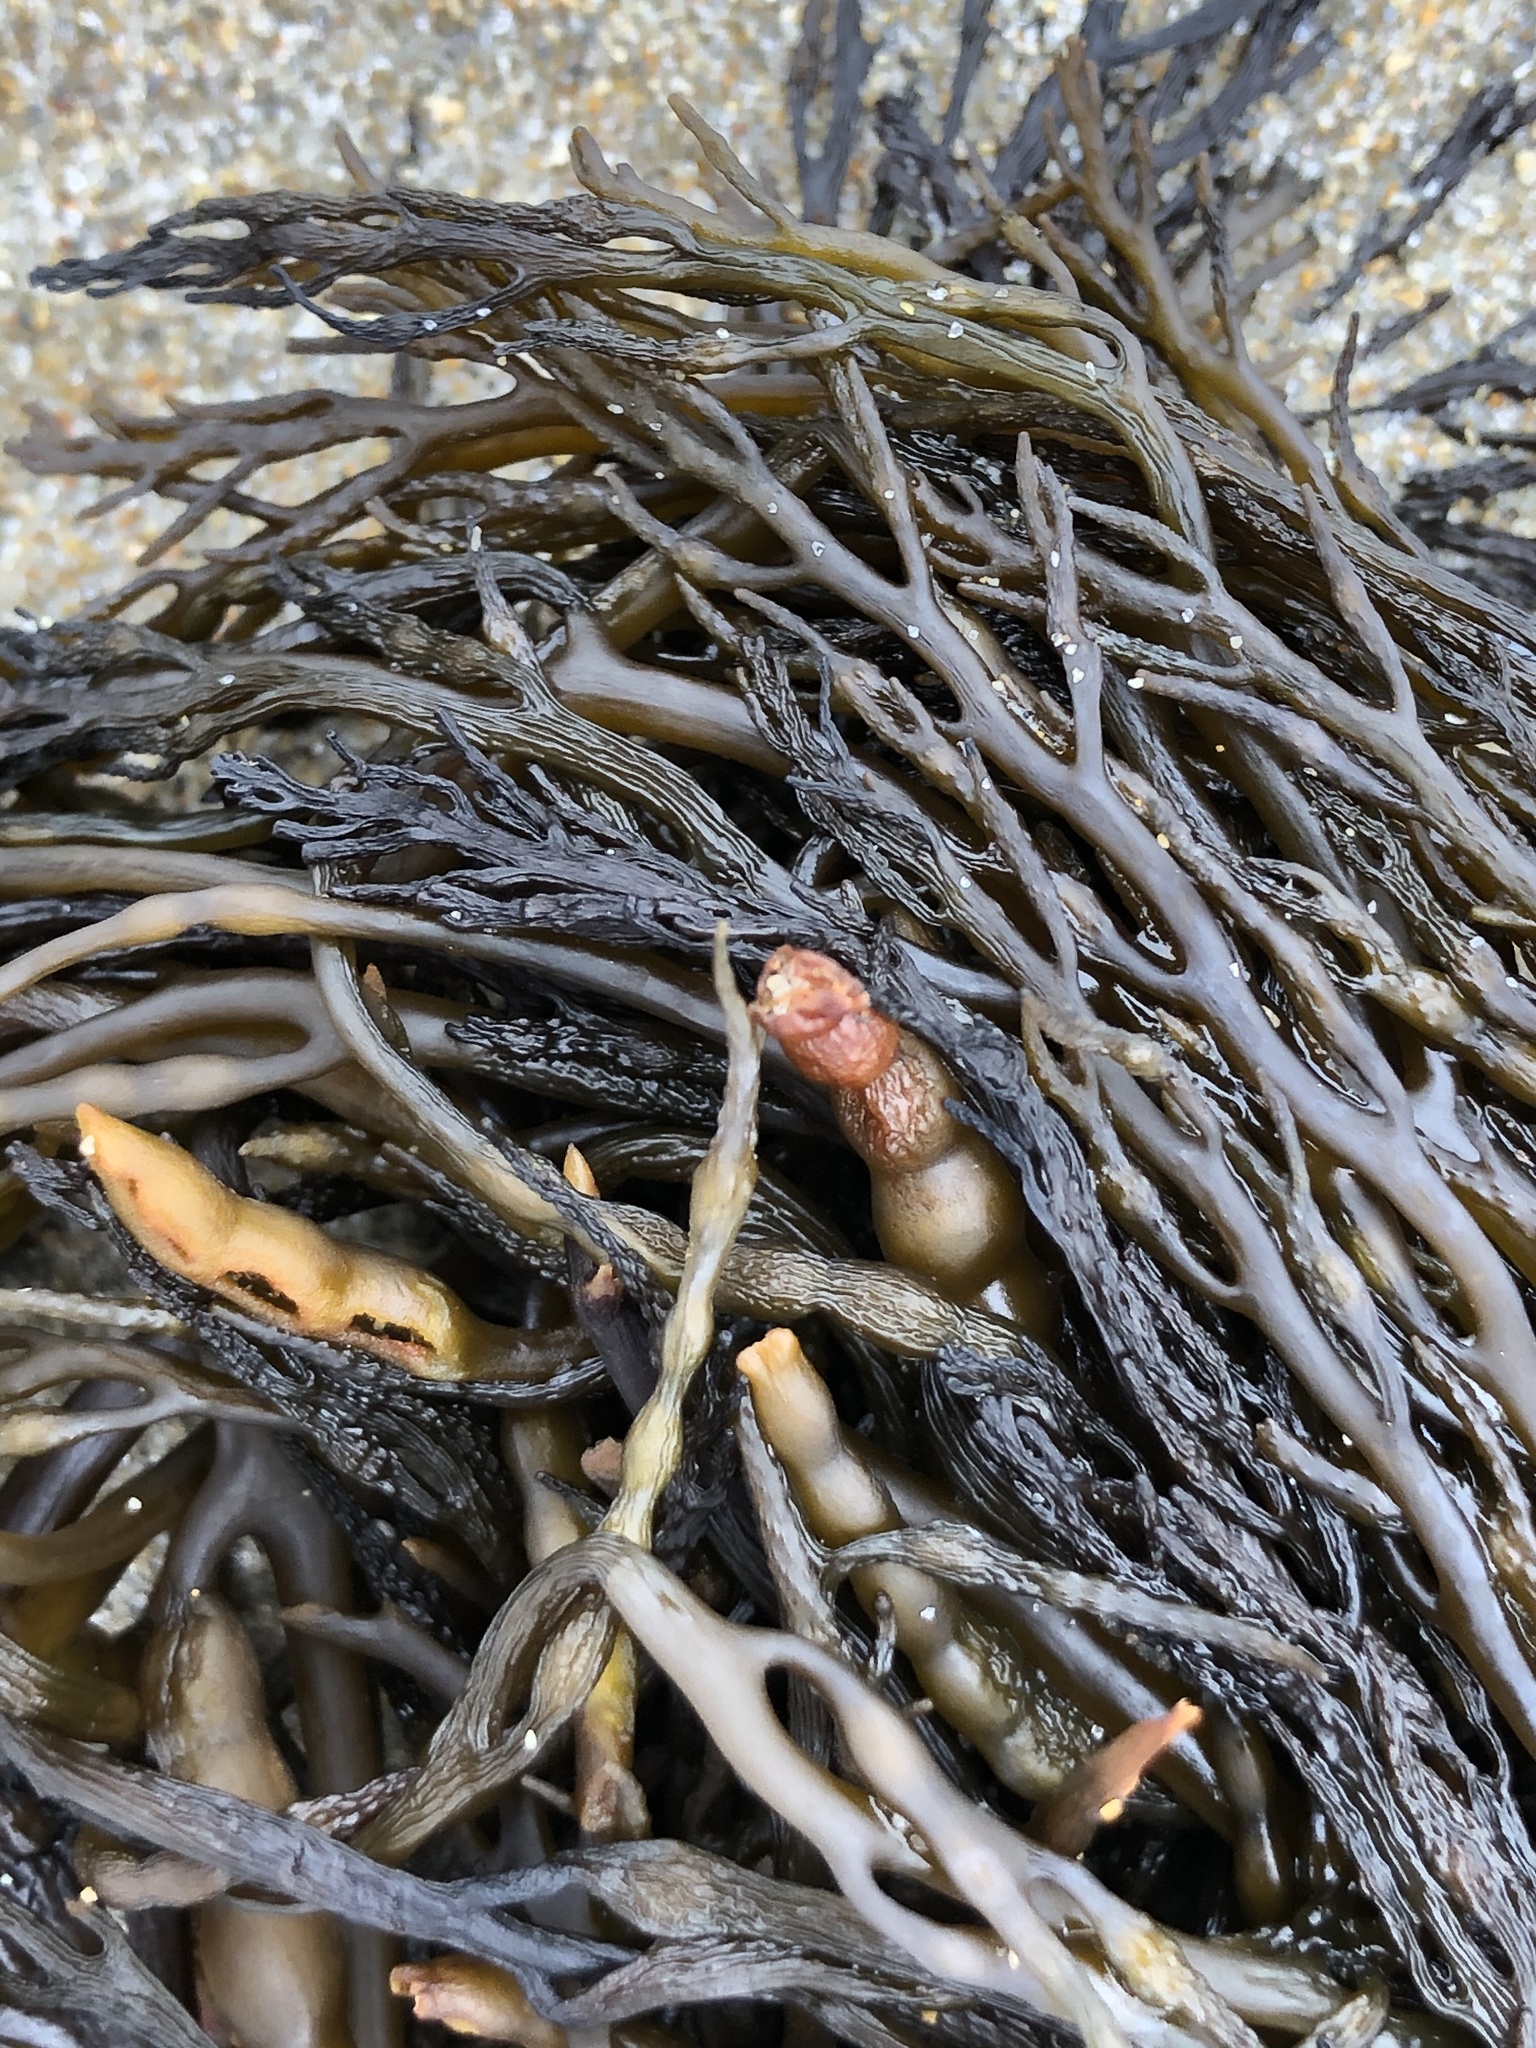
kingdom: Chromista
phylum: Ochrophyta
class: Phaeophyceae
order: Fucales
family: Sargassaceae
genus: Stephanocystis
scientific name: Stephanocystis
